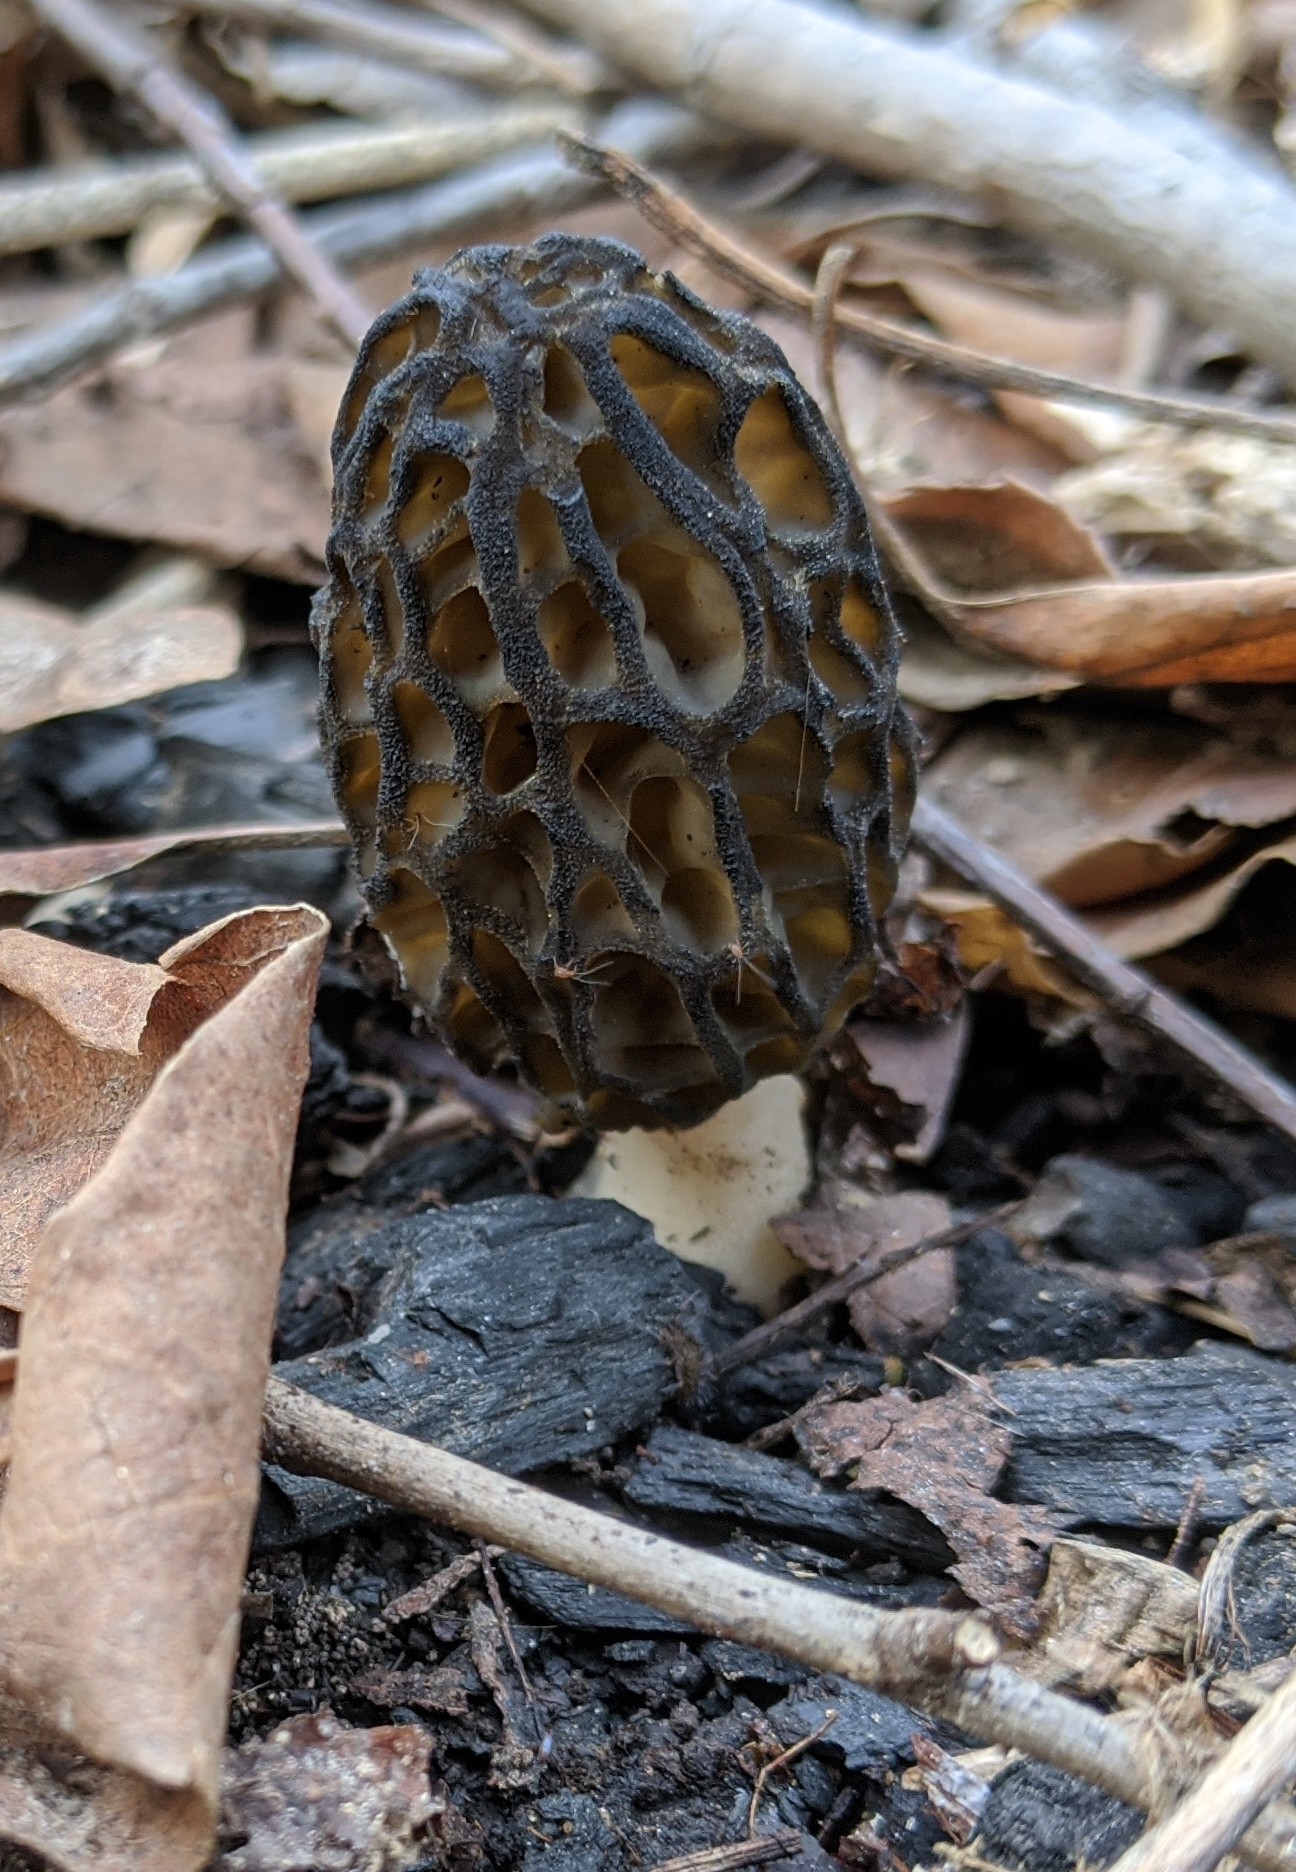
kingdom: Fungi
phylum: Ascomycota
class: Pezizomycetes
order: Pezizales
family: Morchellaceae
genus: Morchella
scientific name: Morchella angusticeps
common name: Black morel
